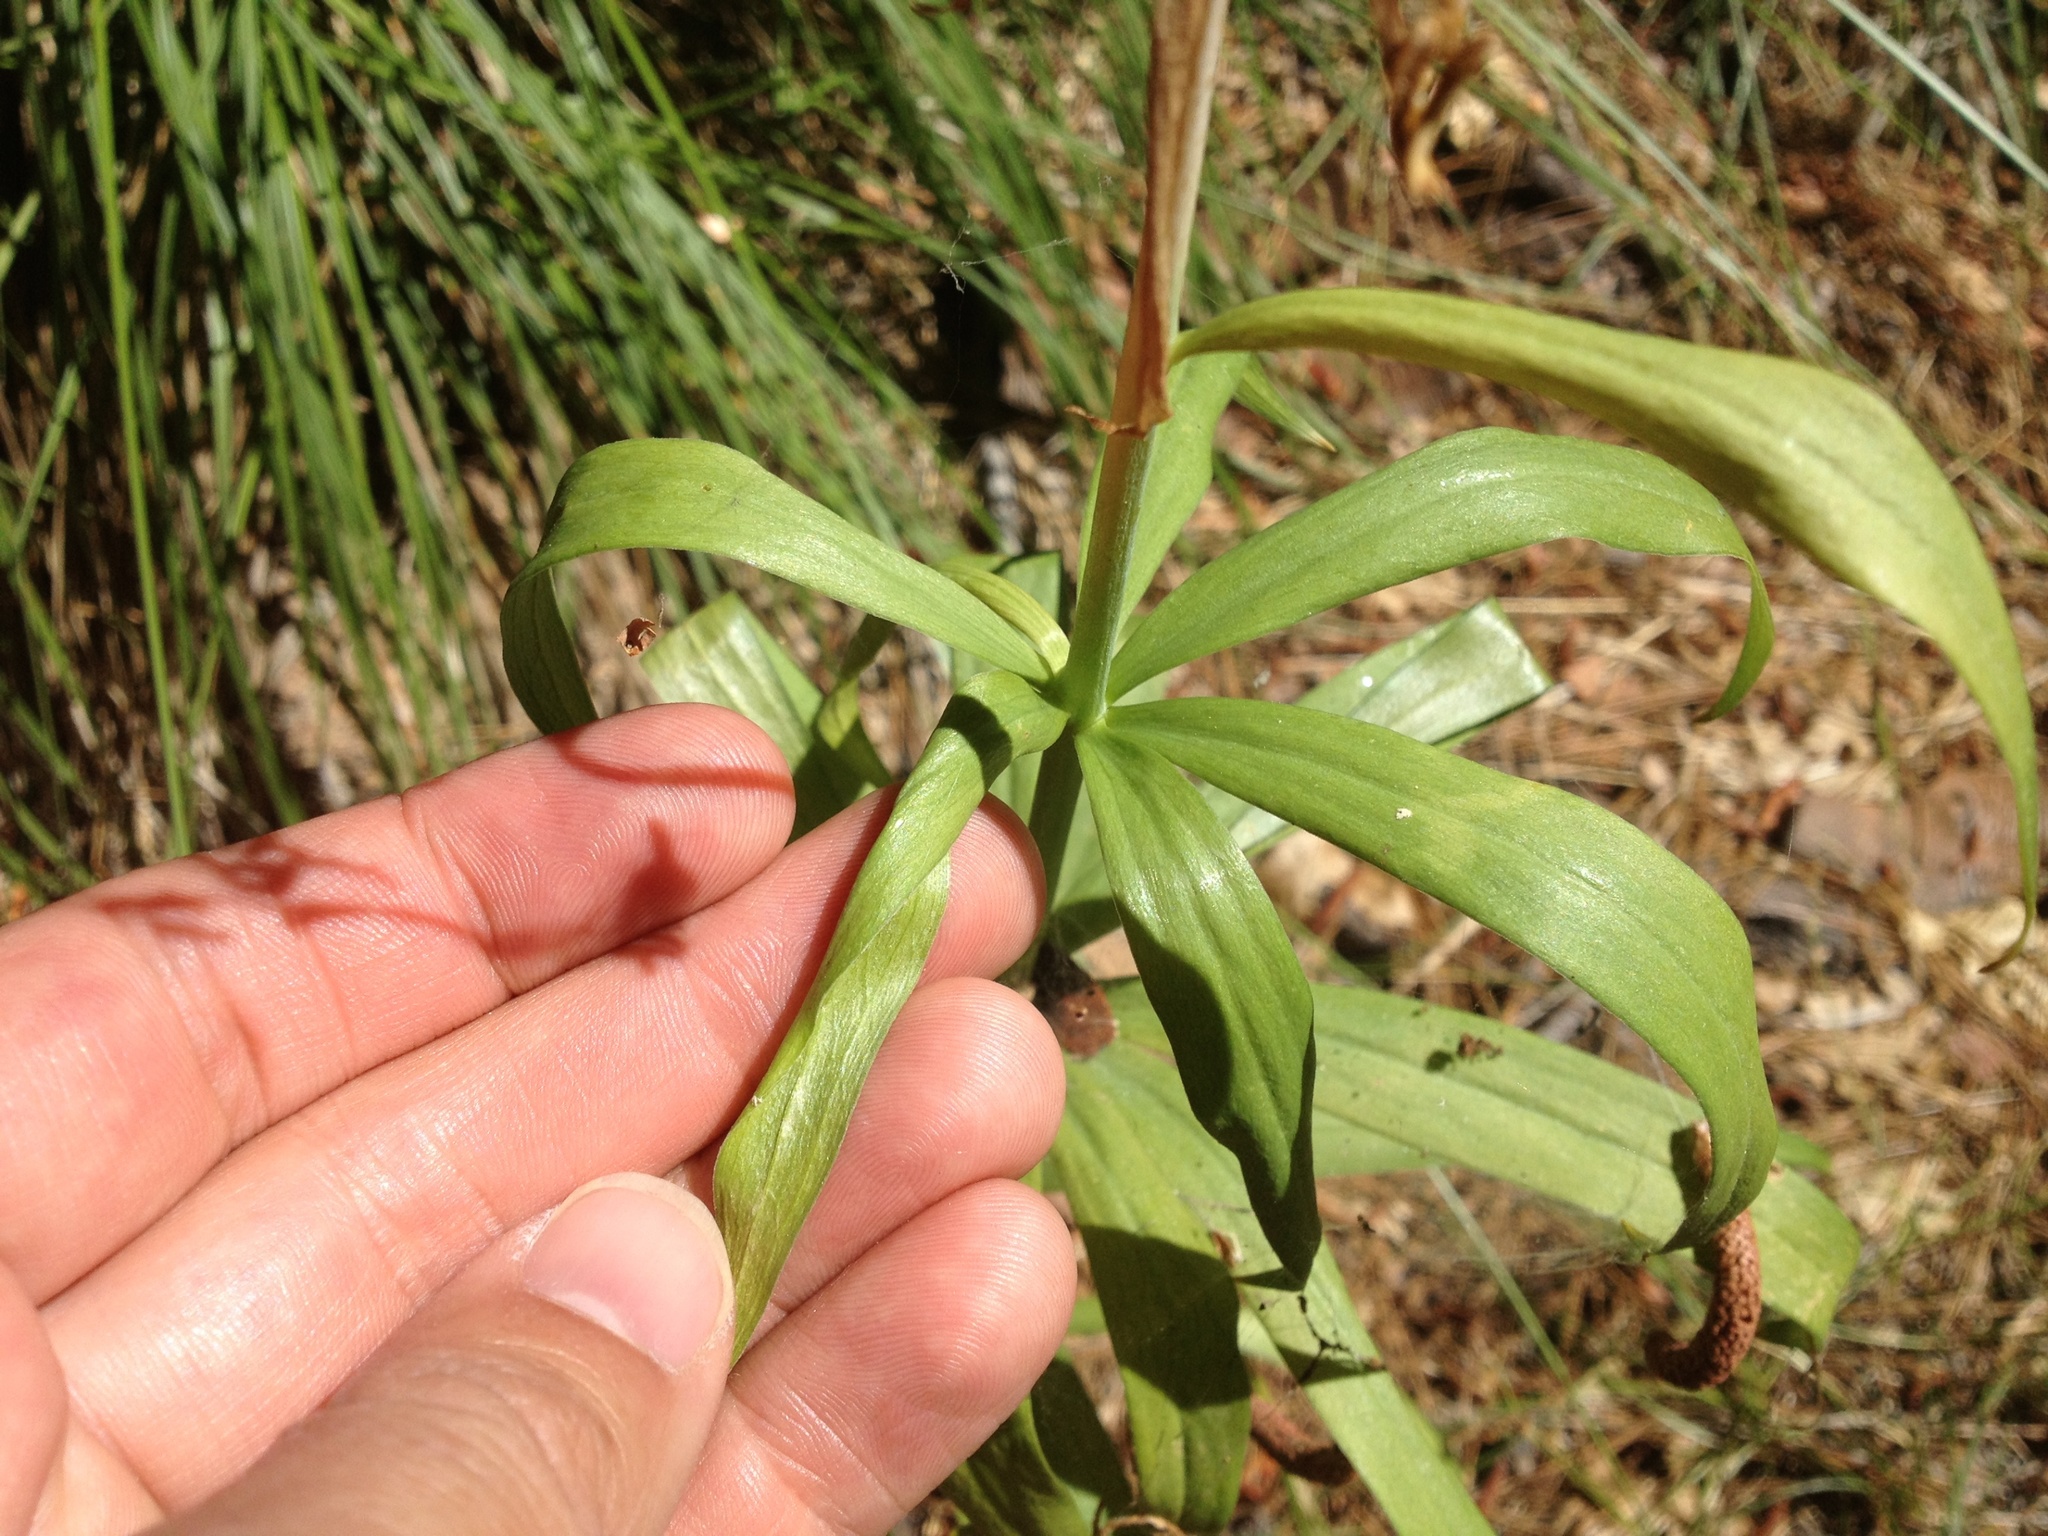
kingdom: Plantae
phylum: Tracheophyta
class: Liliopsida
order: Liliales
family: Liliaceae
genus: Lilium
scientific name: Lilium parryi
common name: Lemon lily
